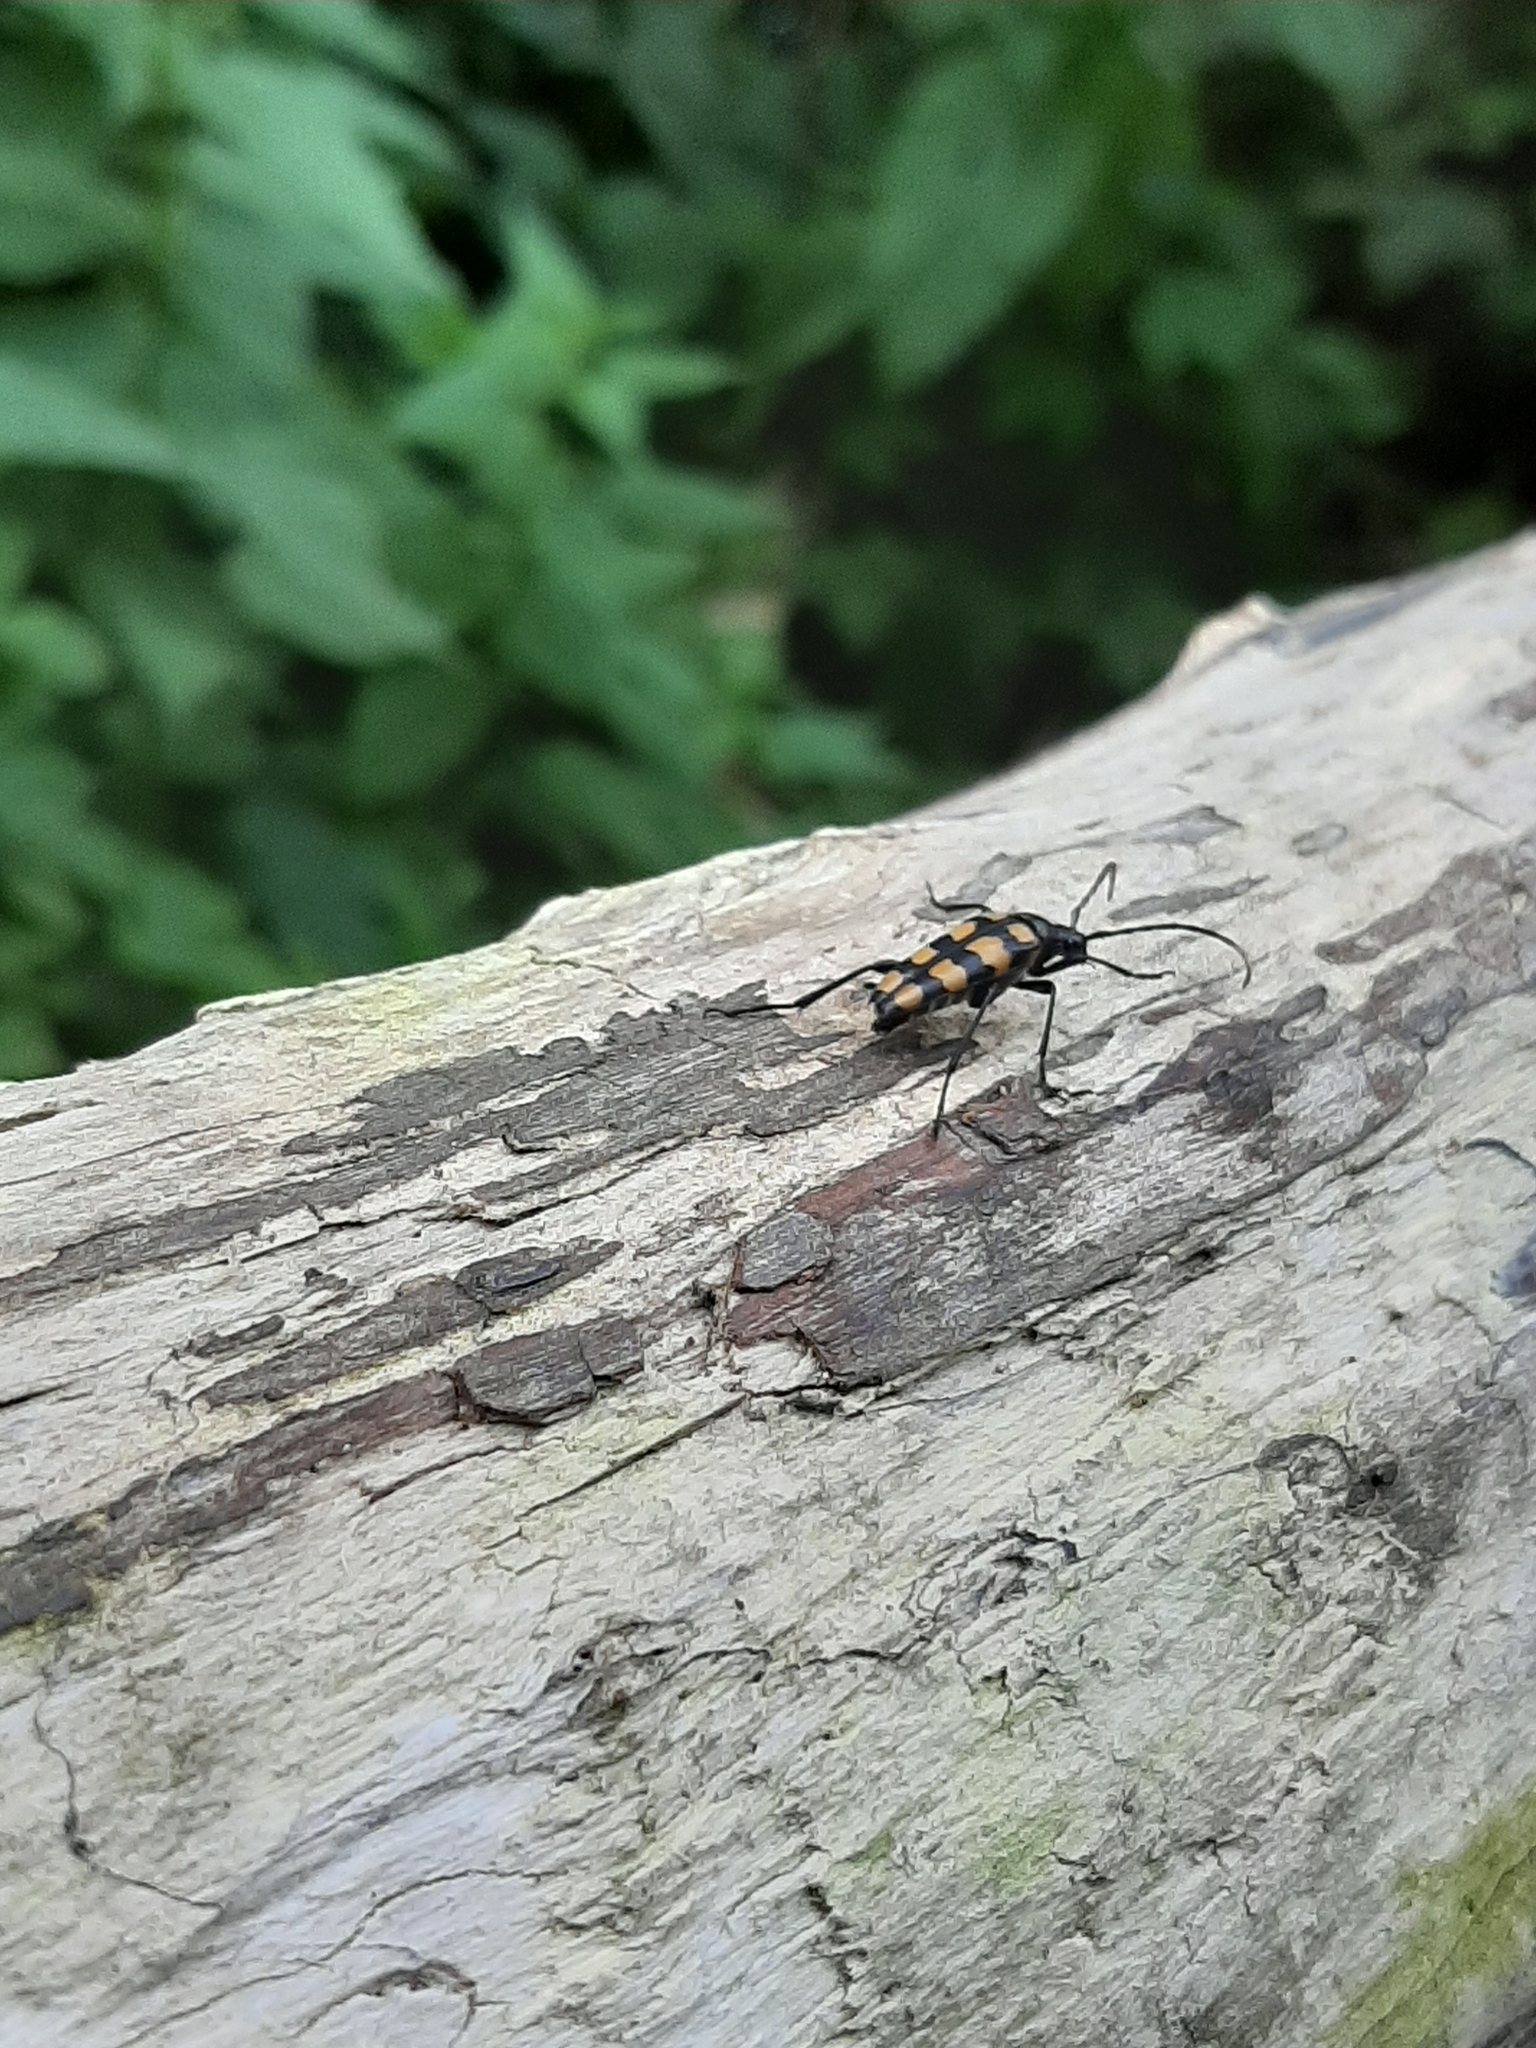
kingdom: Animalia
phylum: Arthropoda
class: Insecta
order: Coleoptera
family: Cerambycidae
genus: Leptura
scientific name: Leptura quadrifasciata
